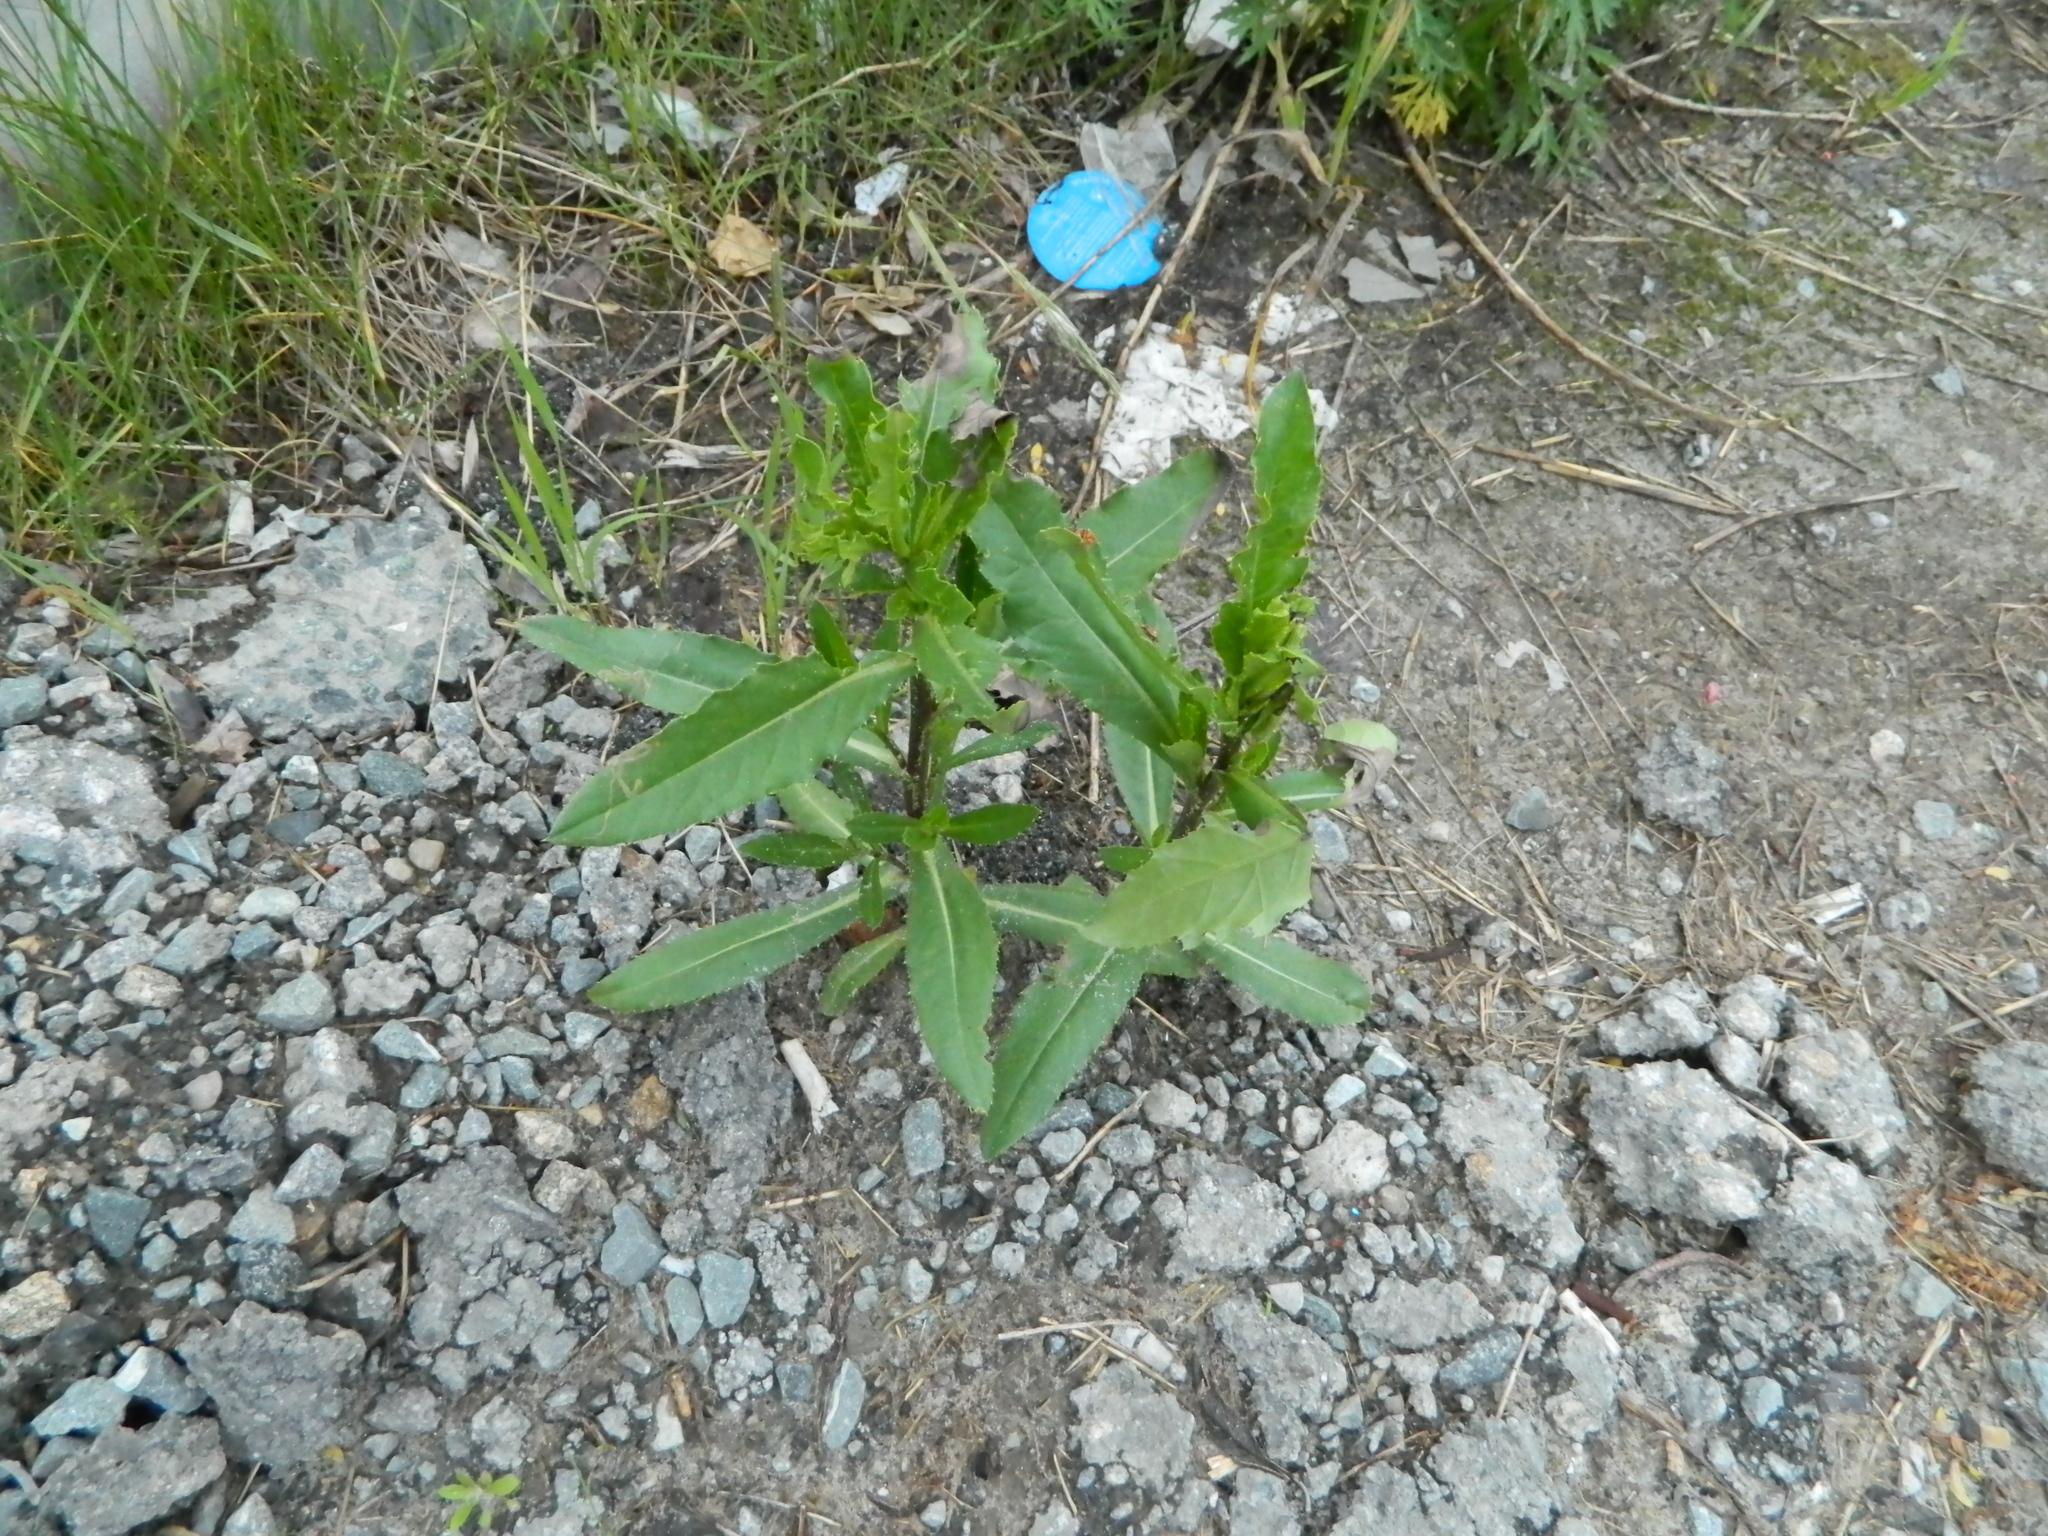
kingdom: Plantae
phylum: Tracheophyta
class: Magnoliopsida
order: Asterales
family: Asteraceae
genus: Cirsium
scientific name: Cirsium arvense
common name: Creeping thistle
